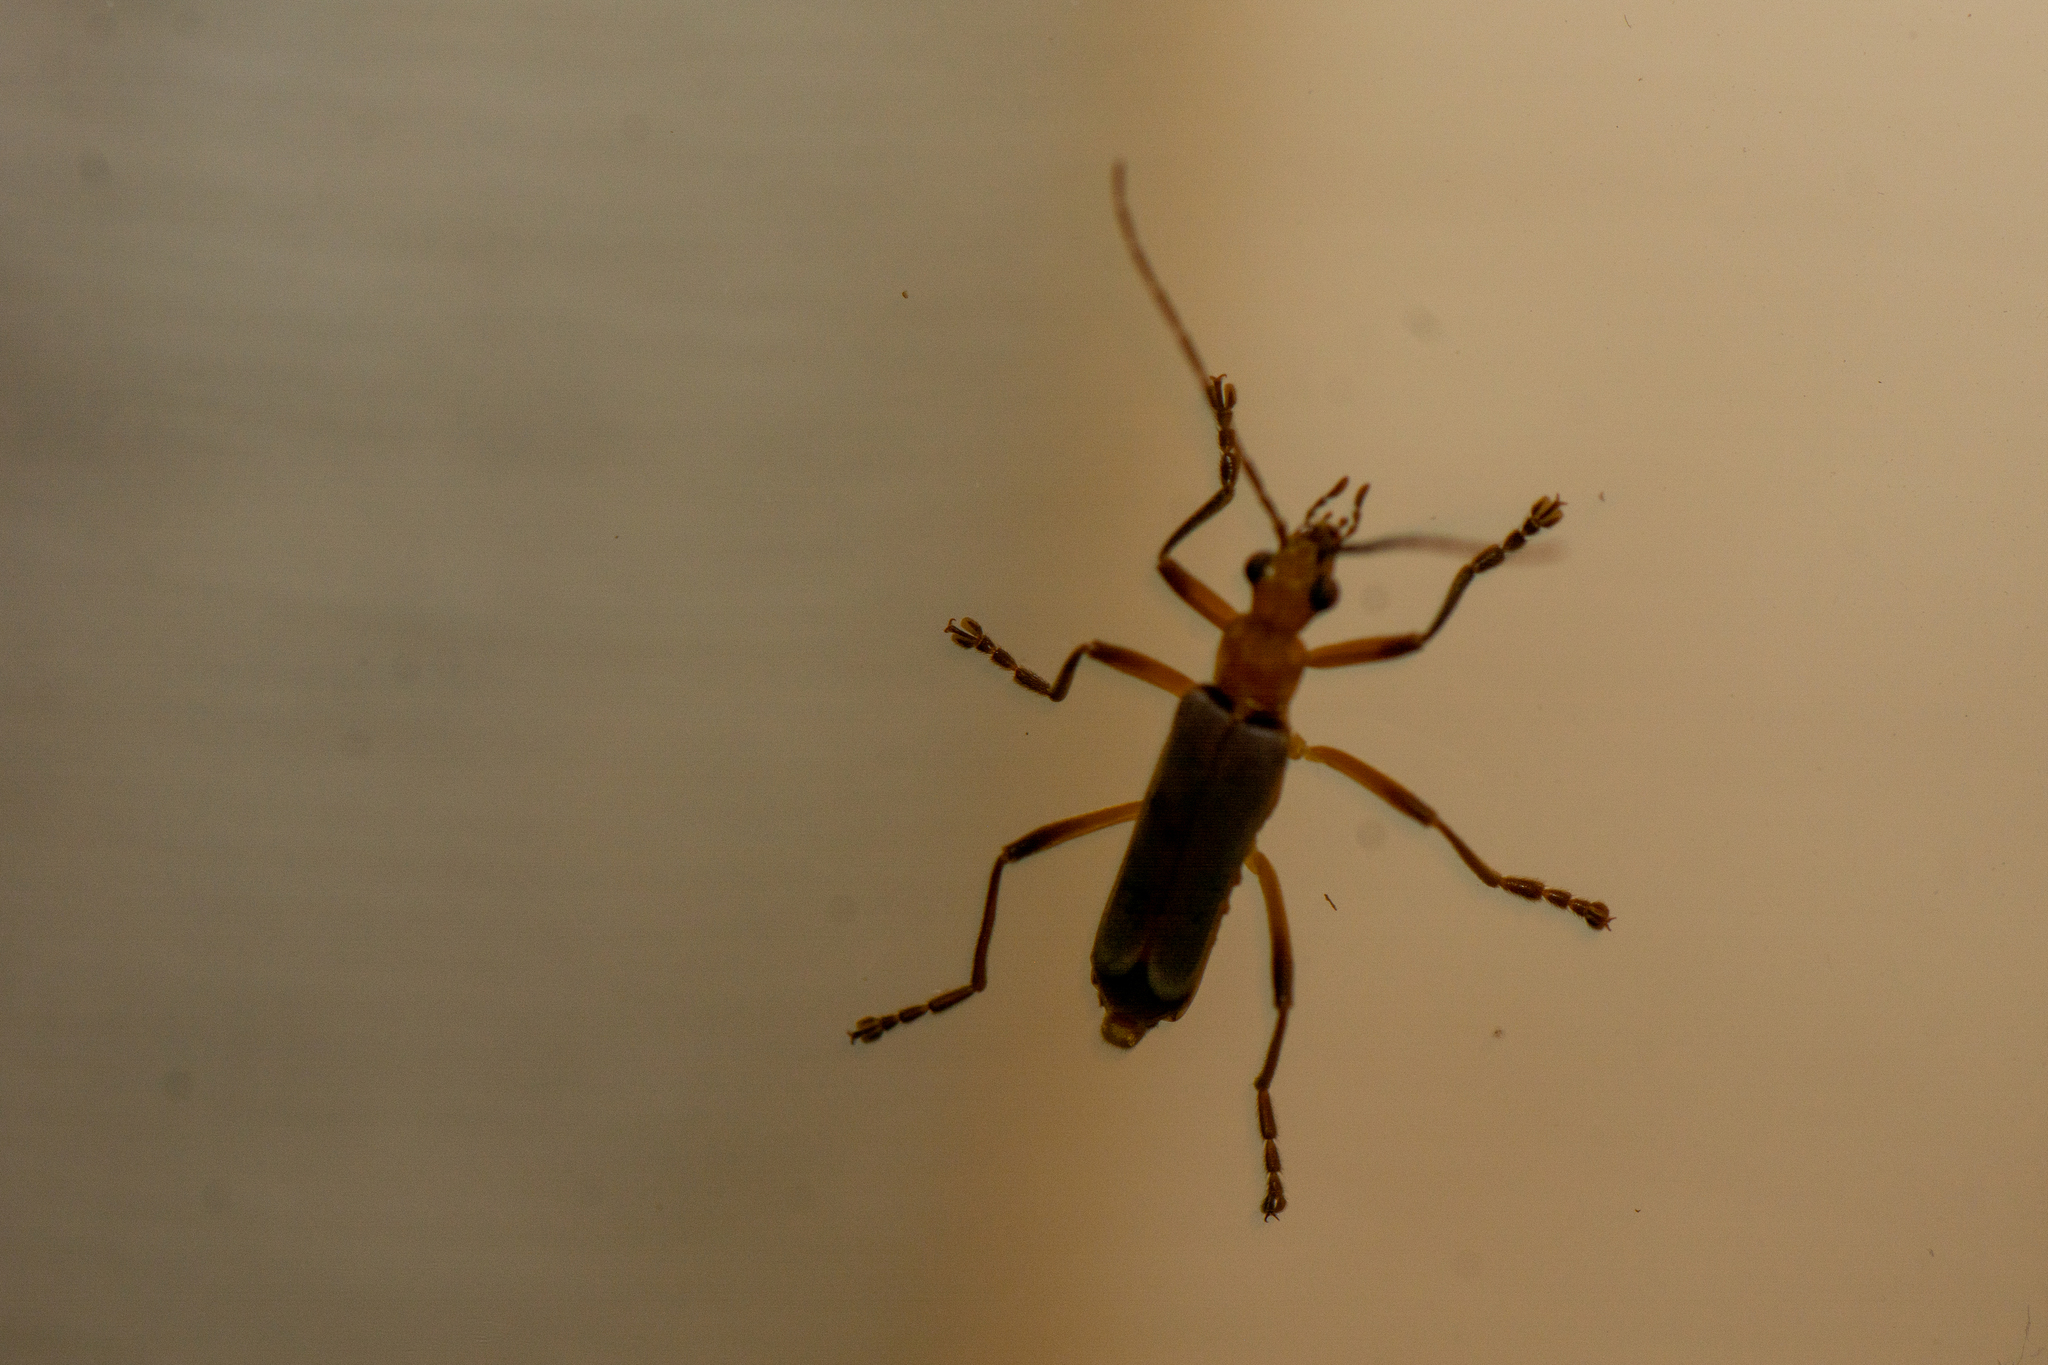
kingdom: Animalia
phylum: Arthropoda
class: Insecta
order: Coleoptera
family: Cantharidae
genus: Chauliognathus
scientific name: Chauliognathus
